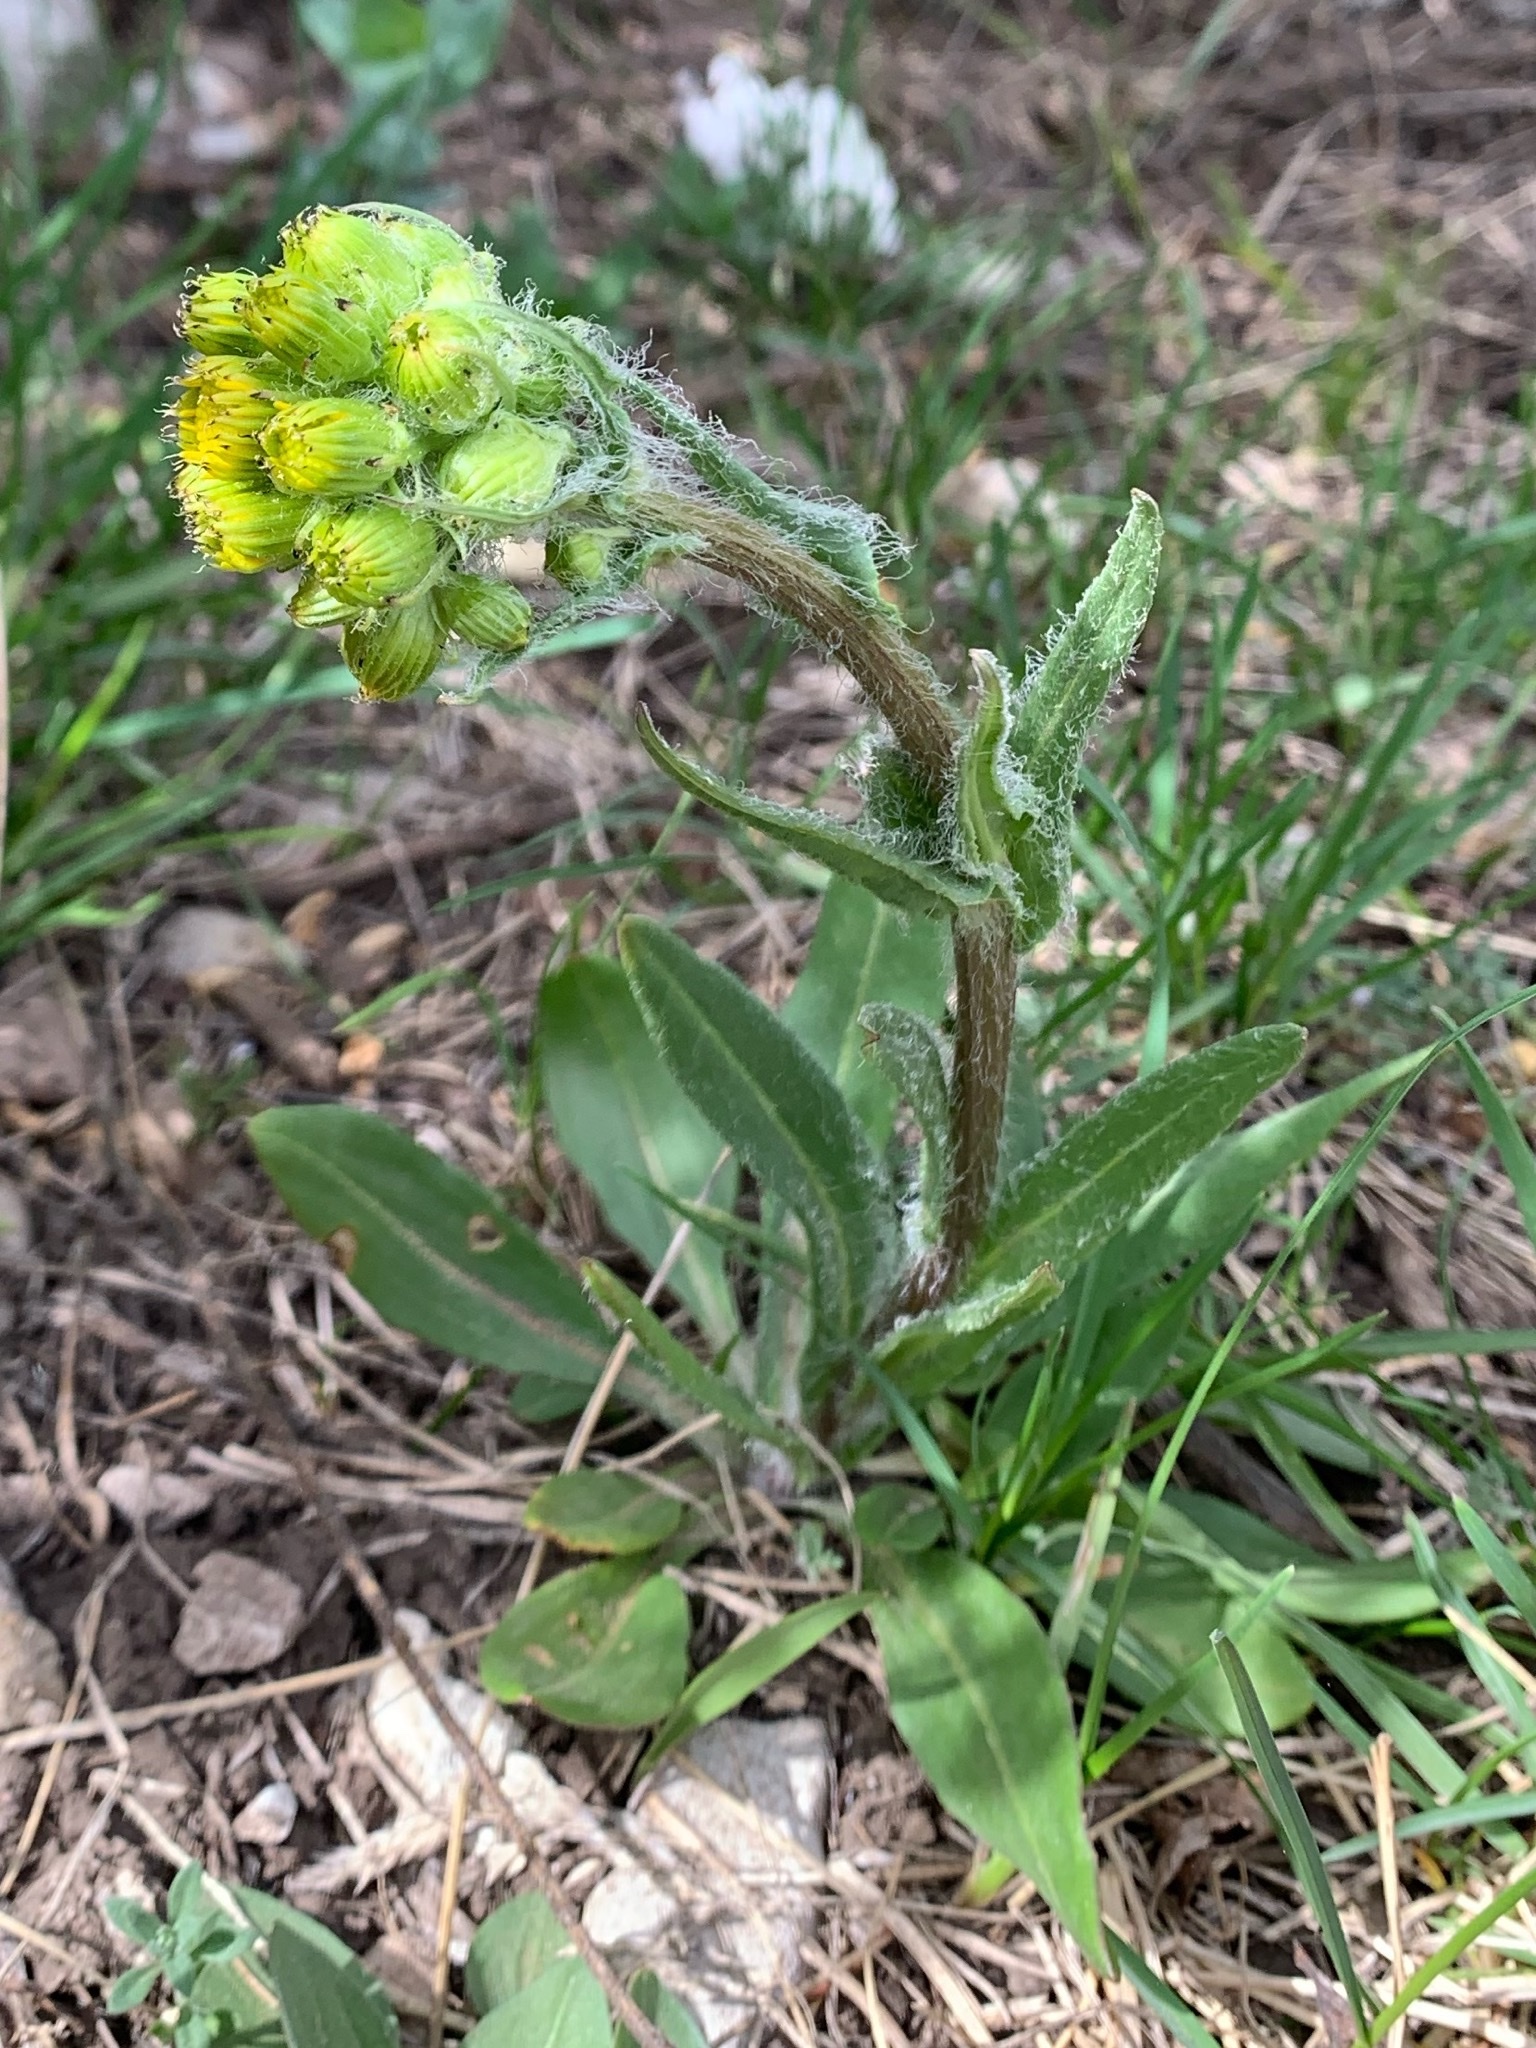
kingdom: Plantae
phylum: Tracheophyta
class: Magnoliopsida
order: Asterales
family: Asteraceae
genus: Senecio
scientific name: Senecio integerrimus
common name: Gaugeplant
